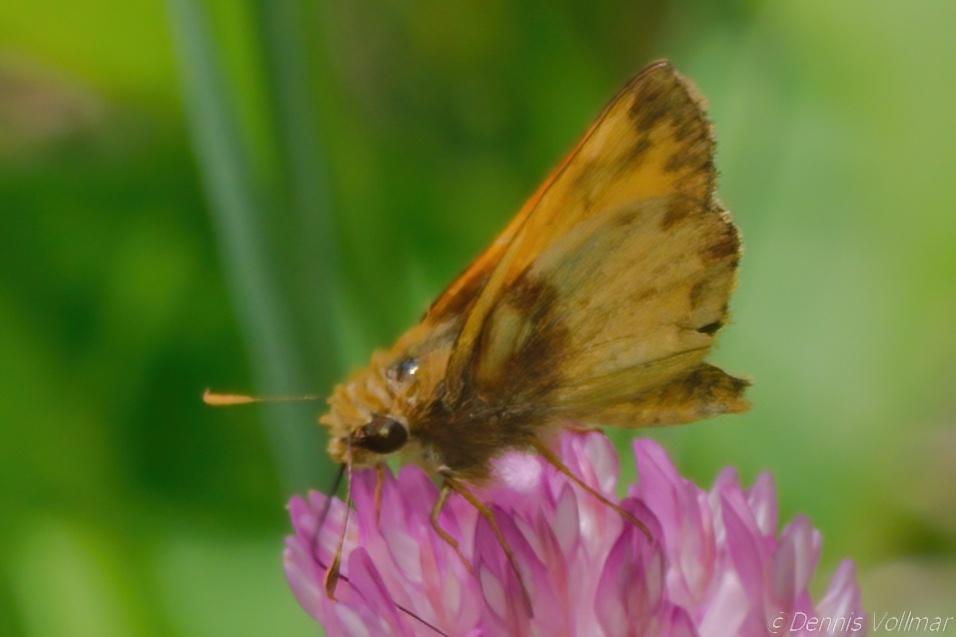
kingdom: Animalia
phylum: Arthropoda
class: Insecta
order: Lepidoptera
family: Hesperiidae
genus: Lon
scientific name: Lon zabulon
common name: Zabulon skipper
